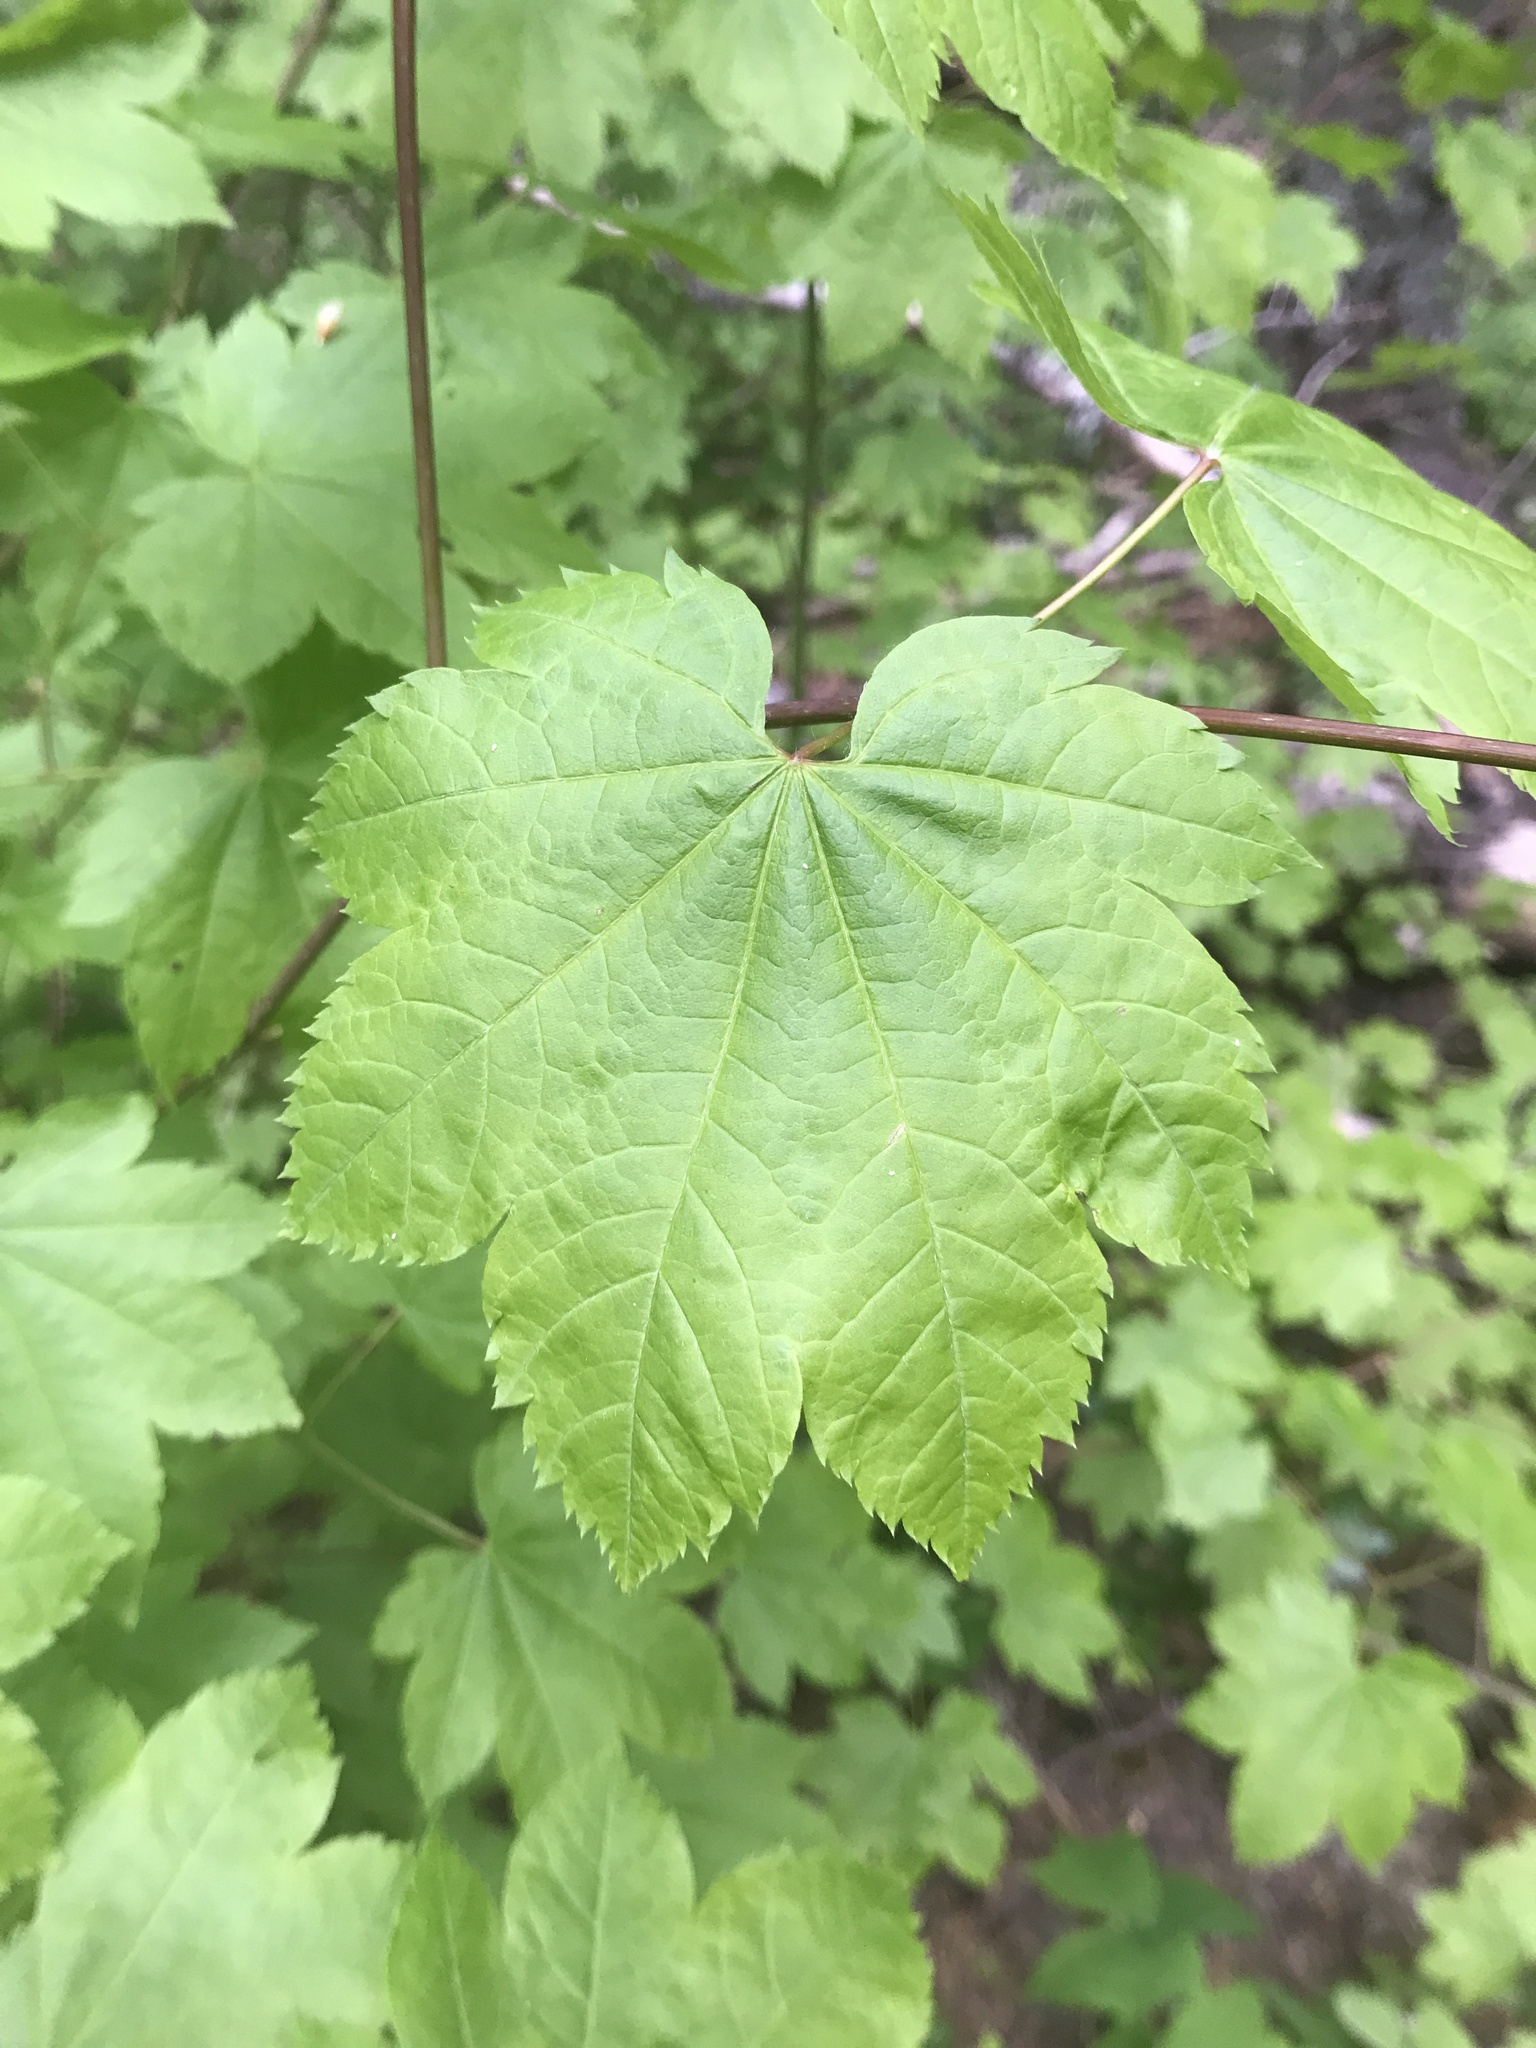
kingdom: Plantae
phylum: Tracheophyta
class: Magnoliopsida
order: Sapindales
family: Sapindaceae
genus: Acer
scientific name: Acer circinatum
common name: Vine maple
